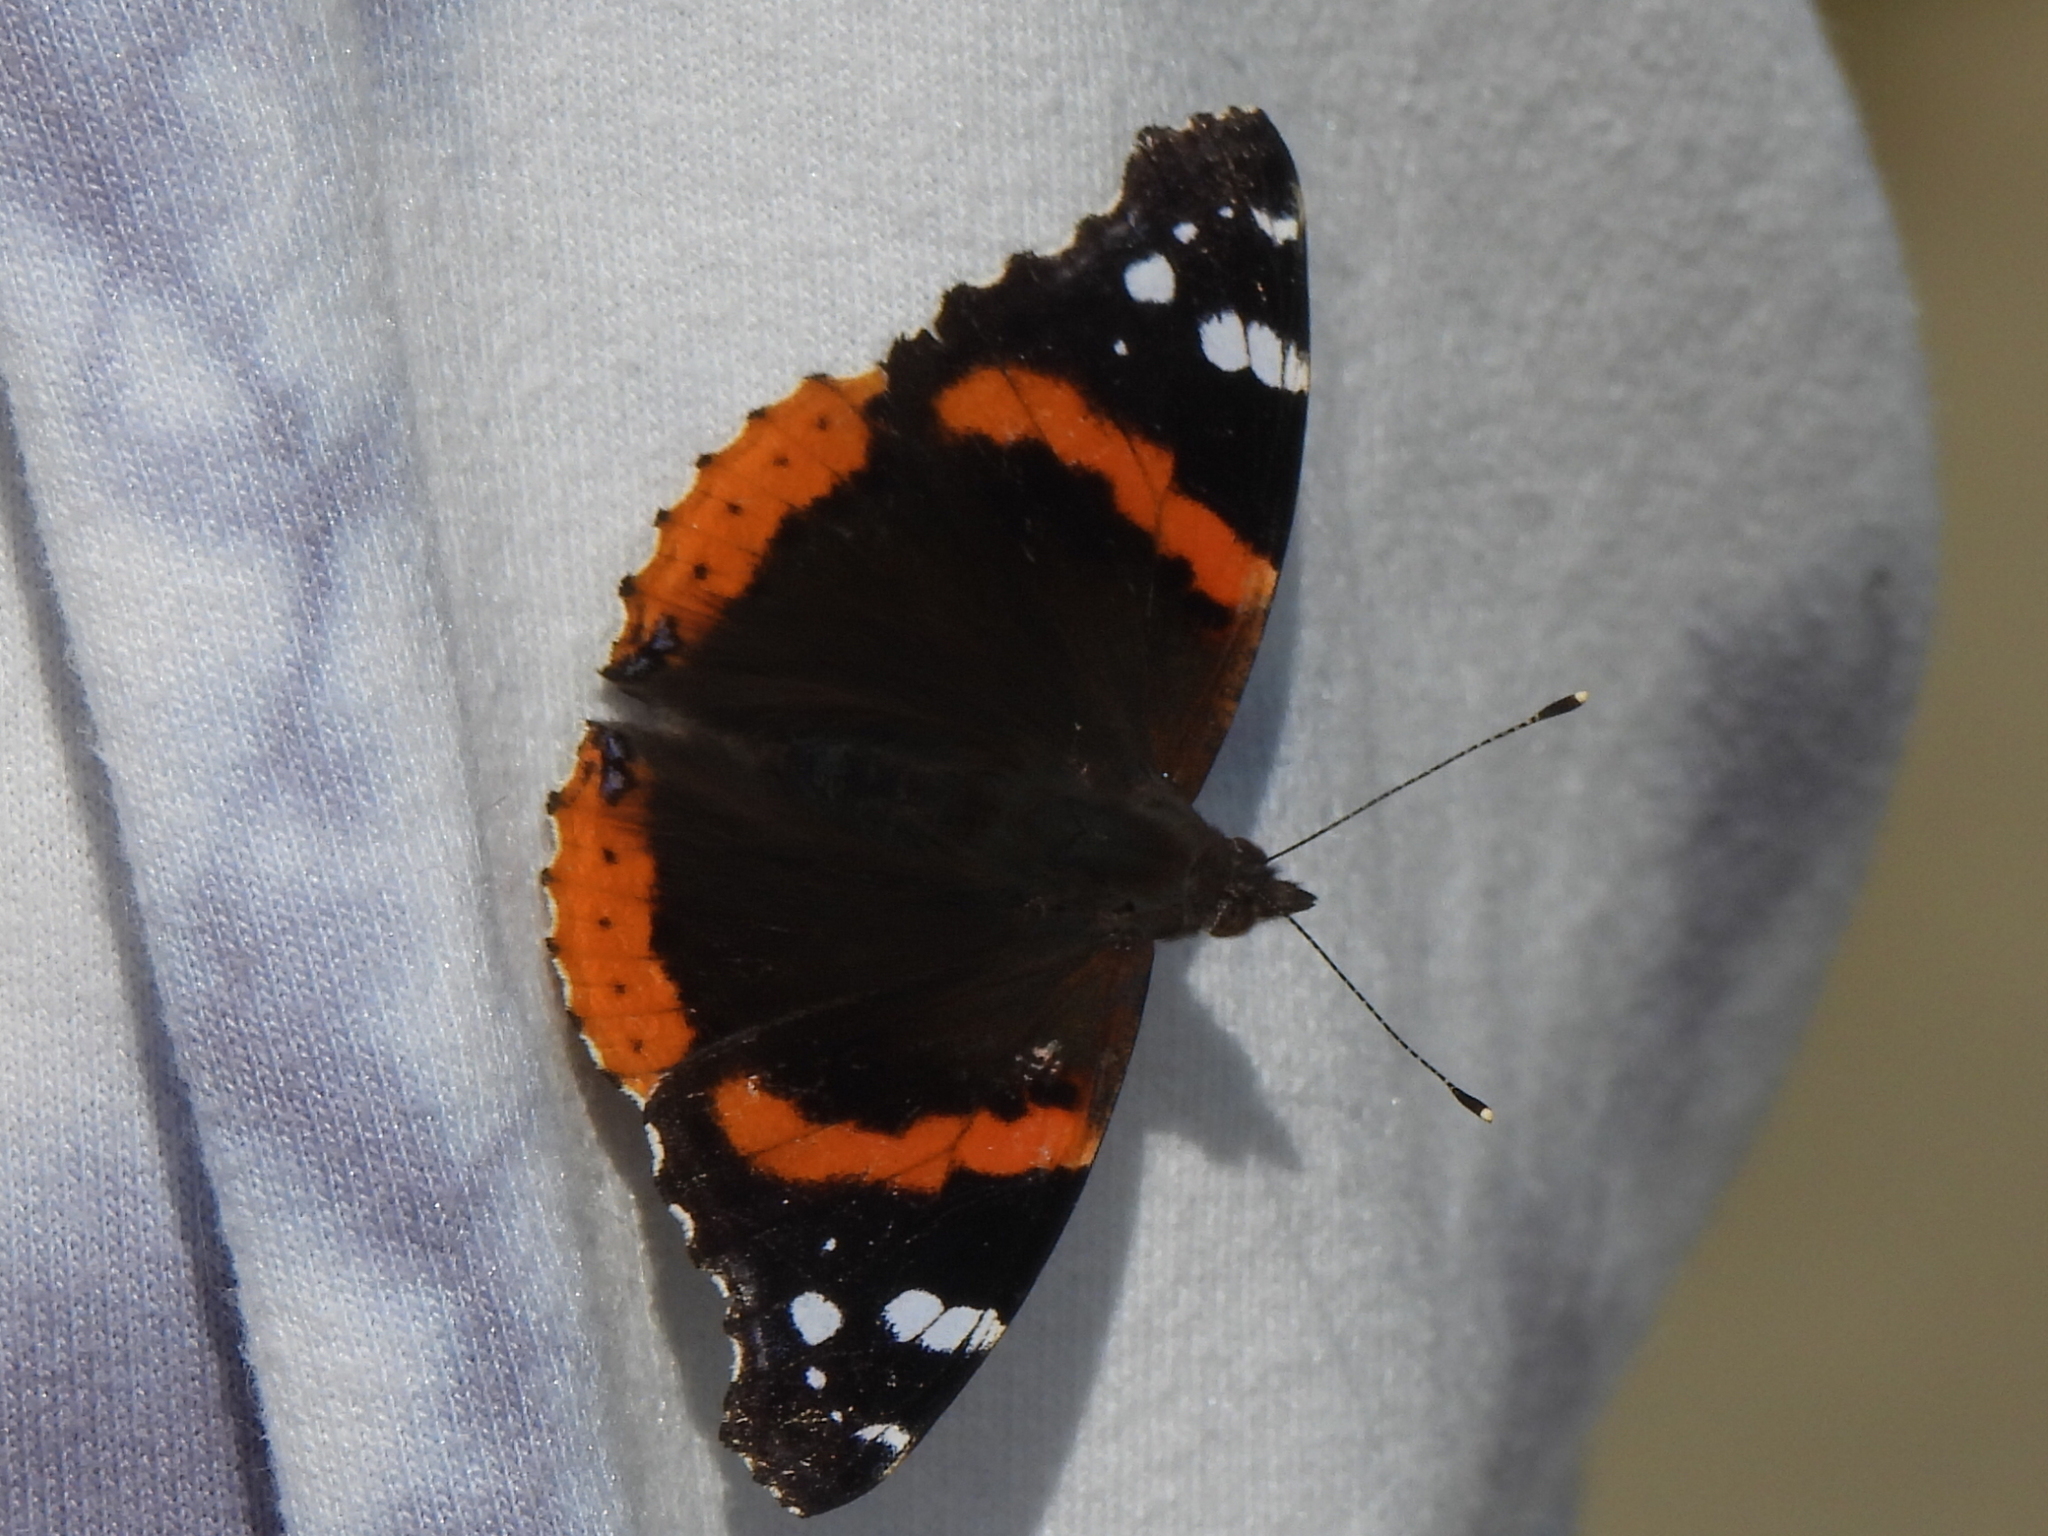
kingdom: Animalia
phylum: Arthropoda
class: Insecta
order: Lepidoptera
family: Nymphalidae
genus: Vanessa
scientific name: Vanessa atalanta
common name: Red admiral
